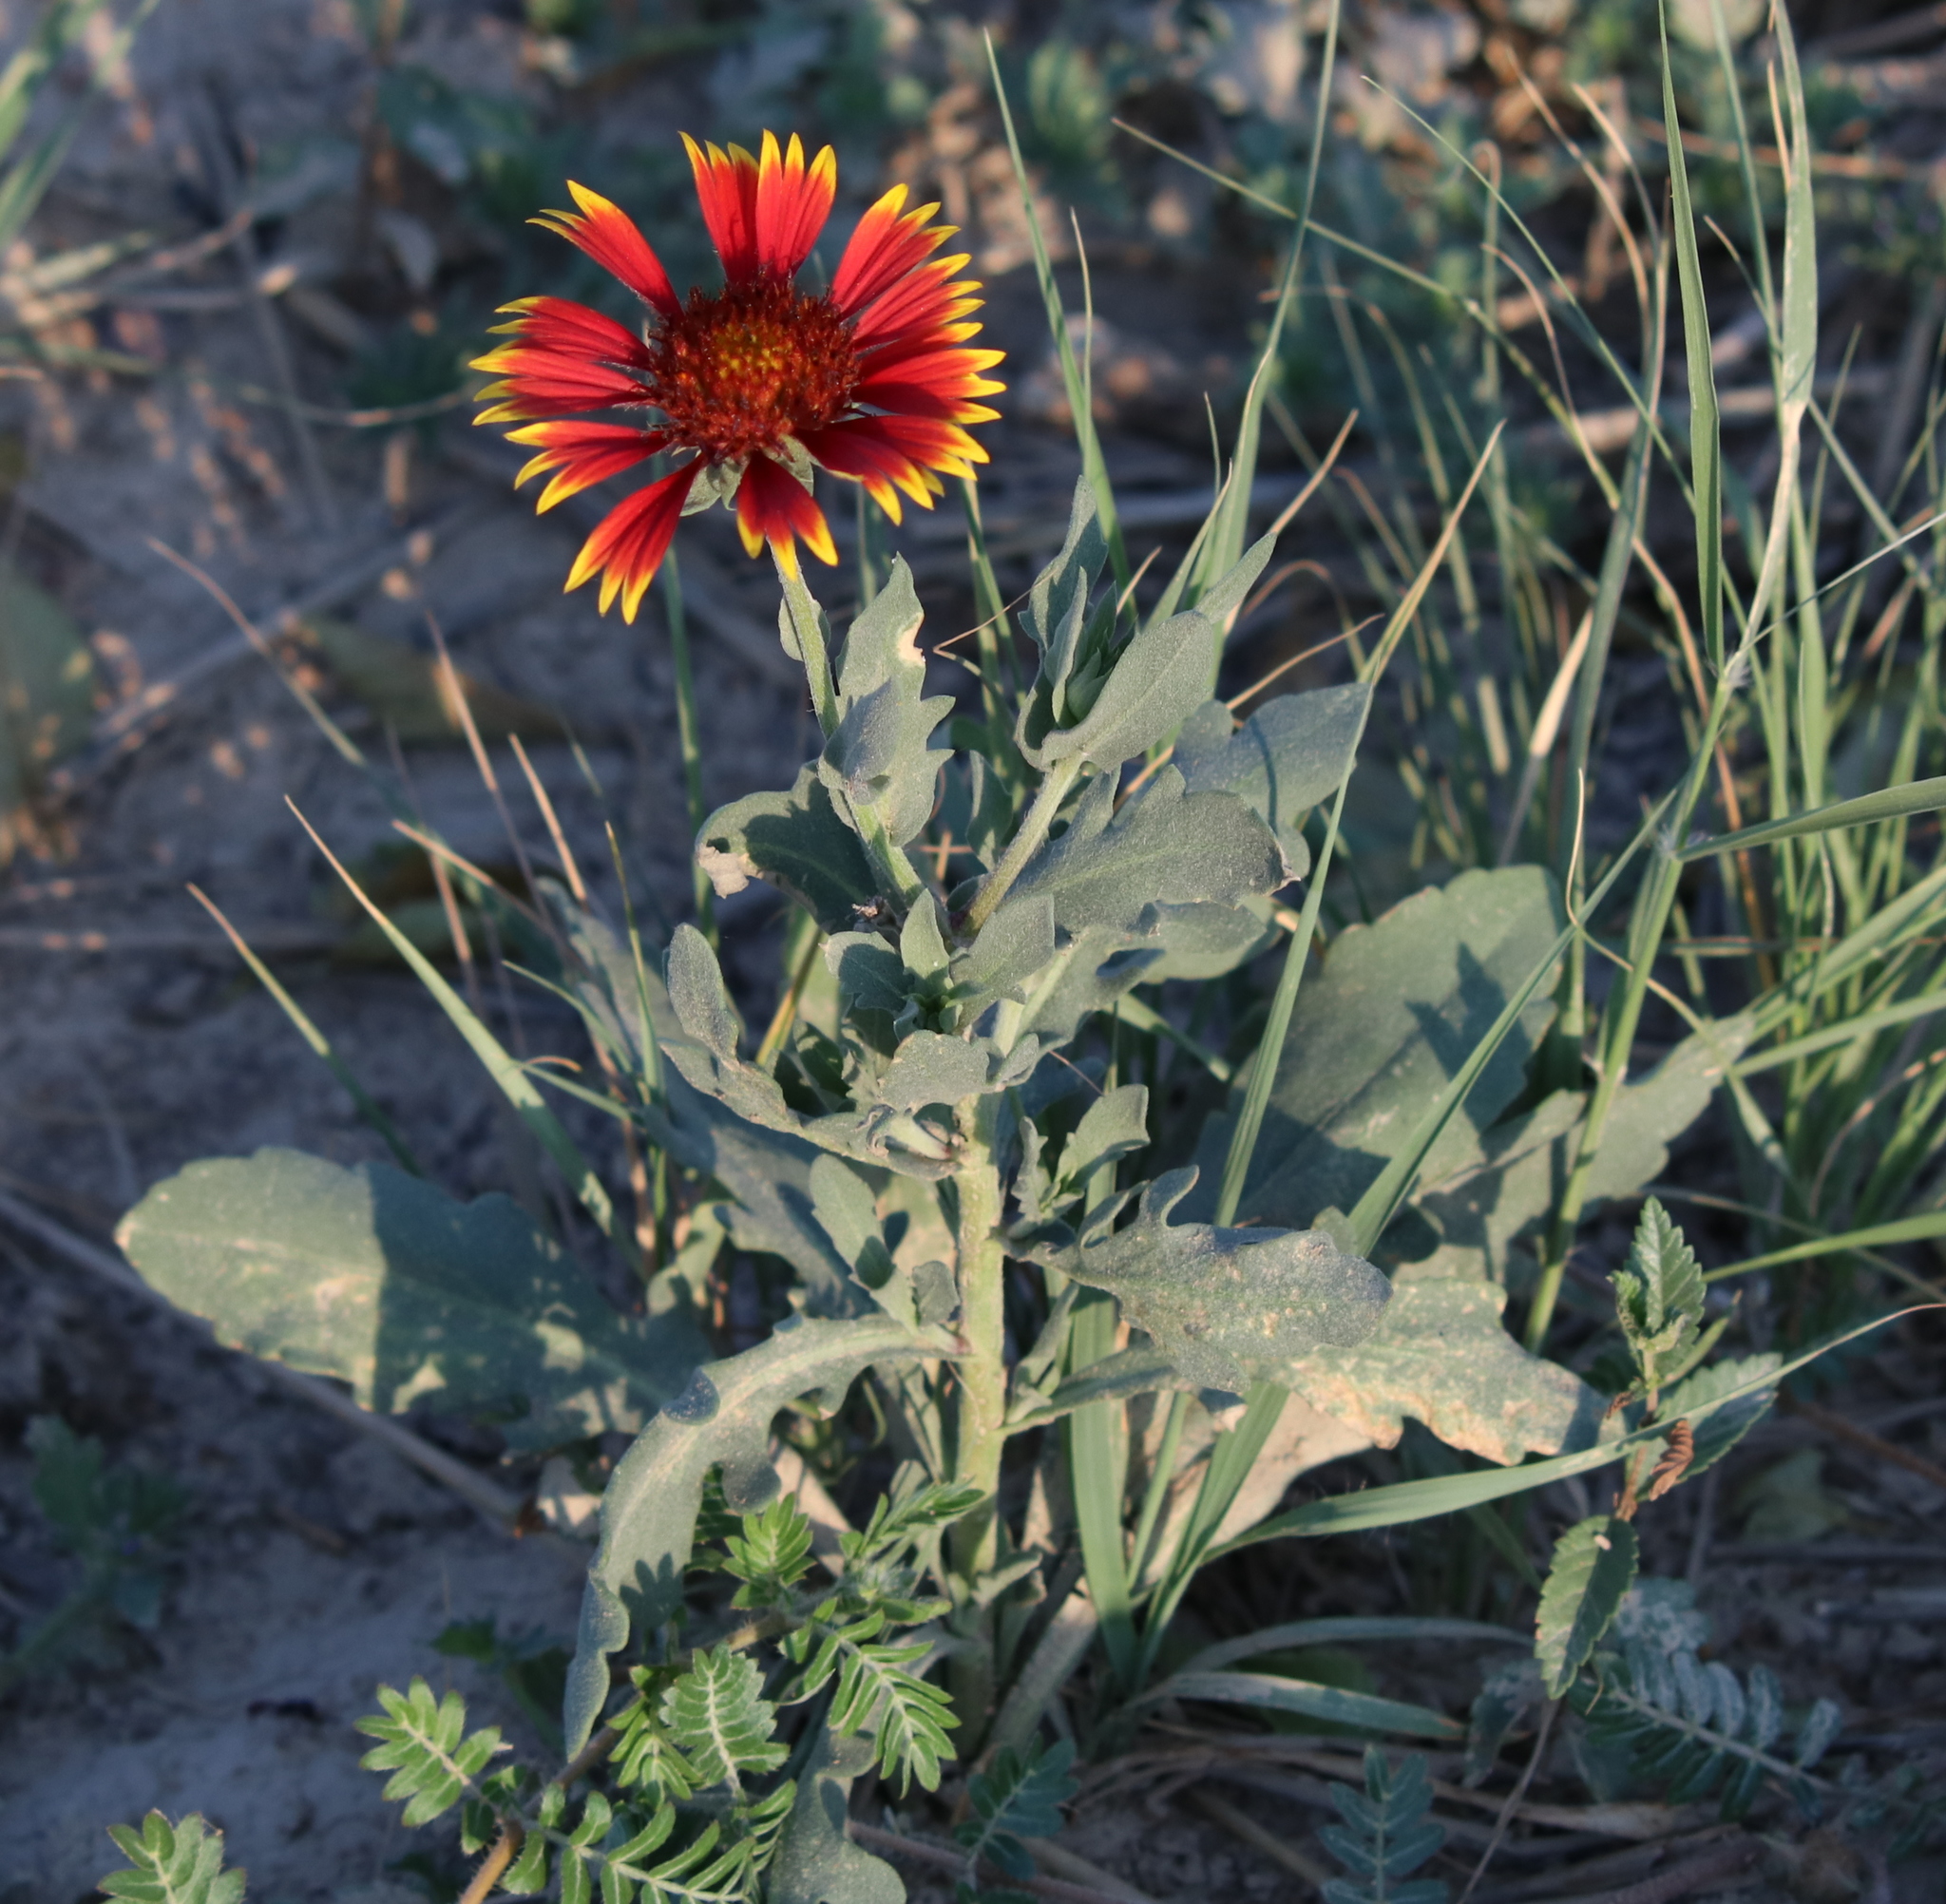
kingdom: Plantae
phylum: Tracheophyta
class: Magnoliopsida
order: Asterales
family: Asteraceae
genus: Gaillardia
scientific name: Gaillardia pulchella
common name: Firewheel
